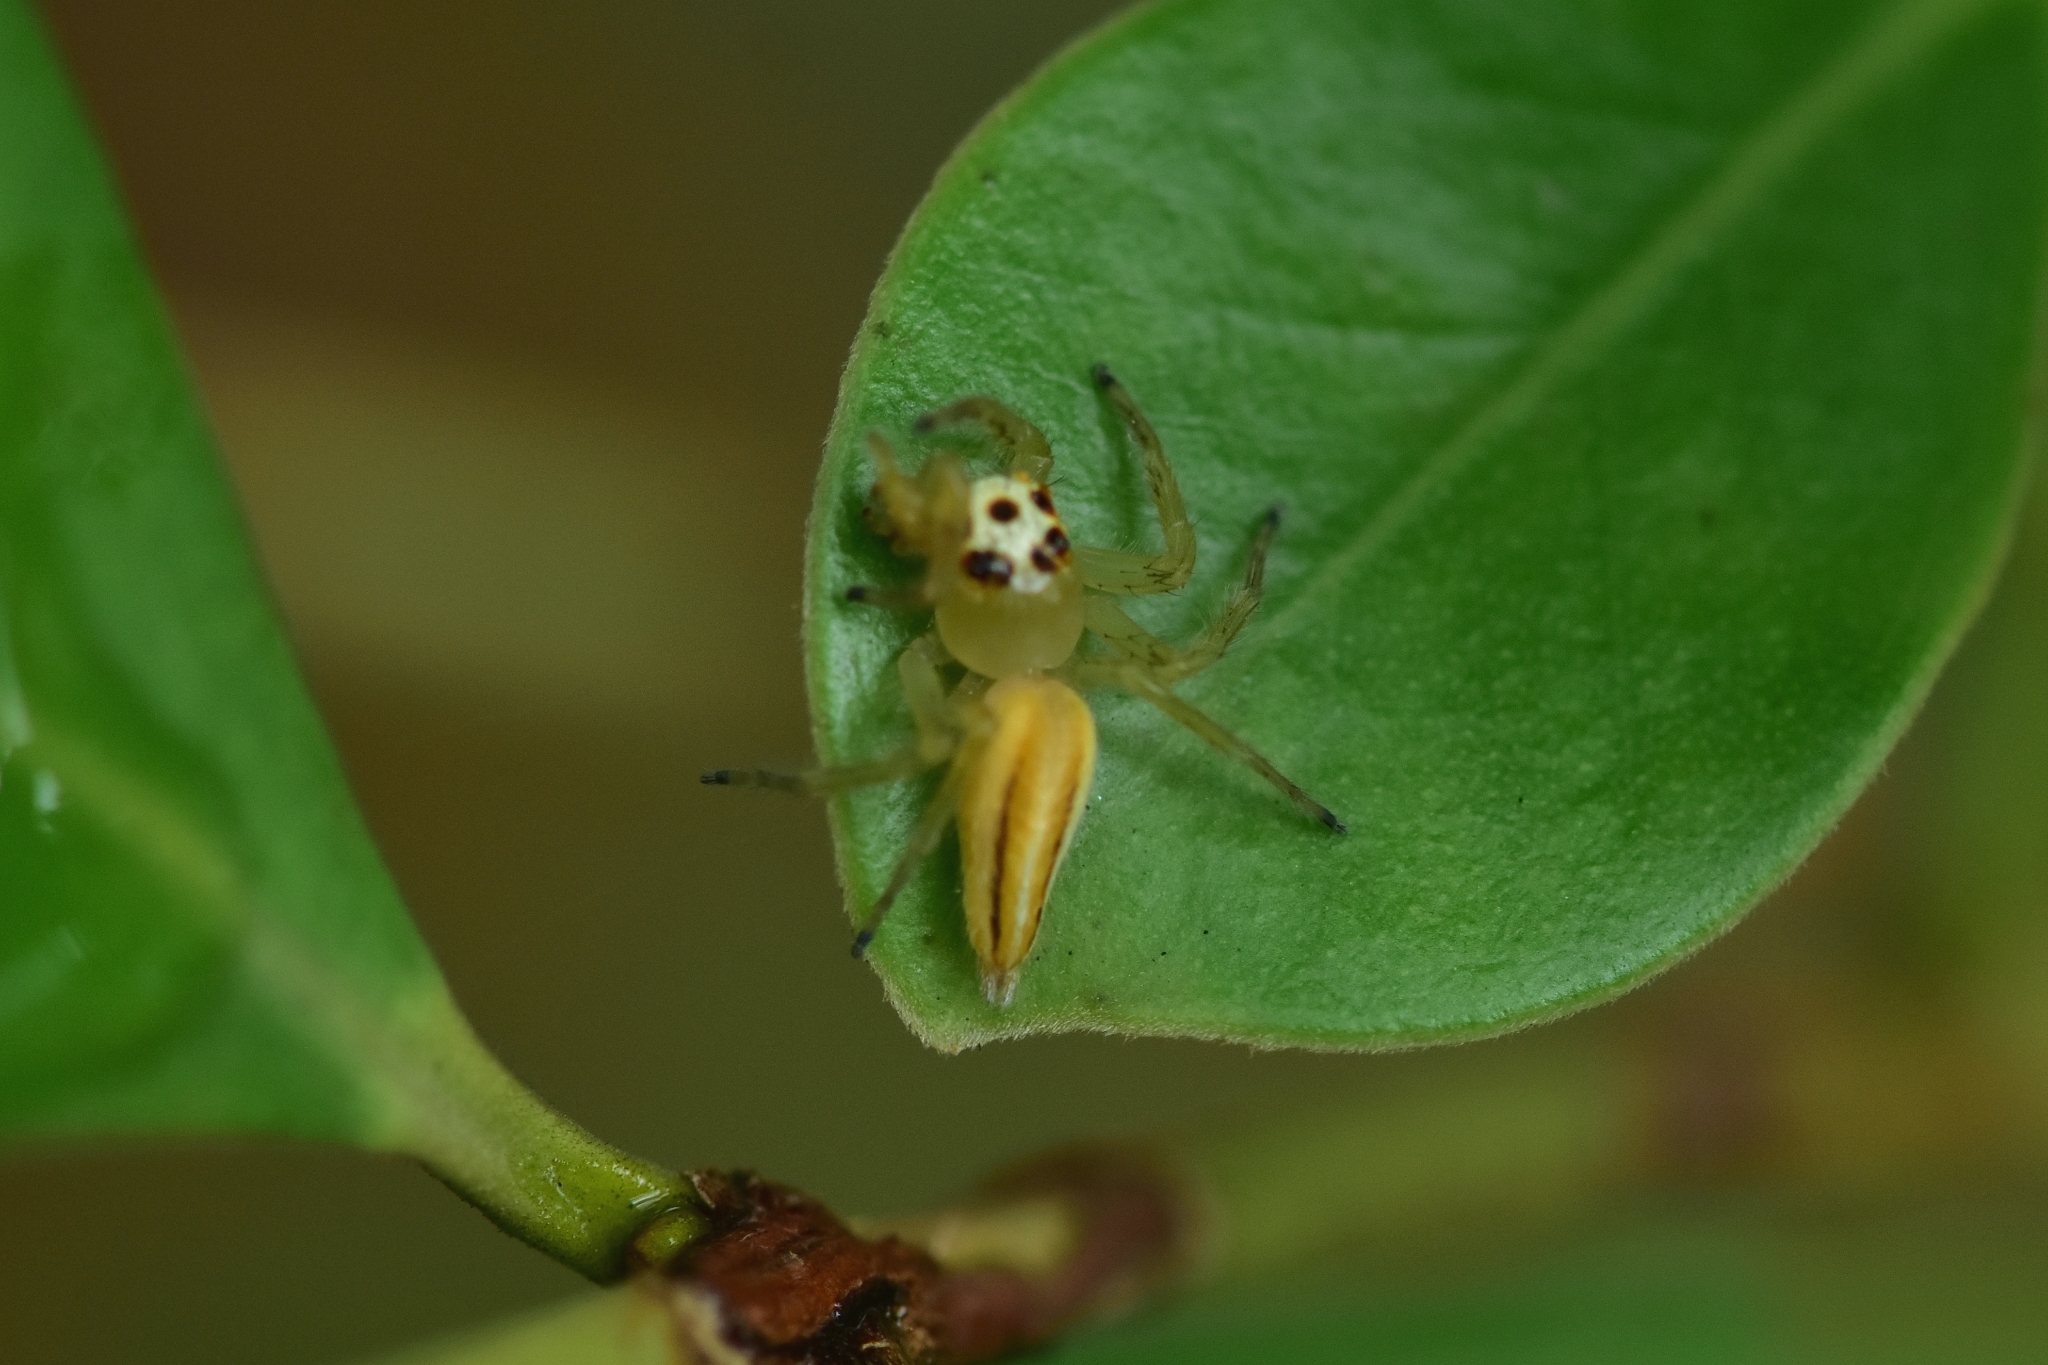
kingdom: Animalia
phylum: Arthropoda
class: Arachnida
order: Araneae
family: Salticidae
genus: Telamonia
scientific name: Telamonia dimidiata
